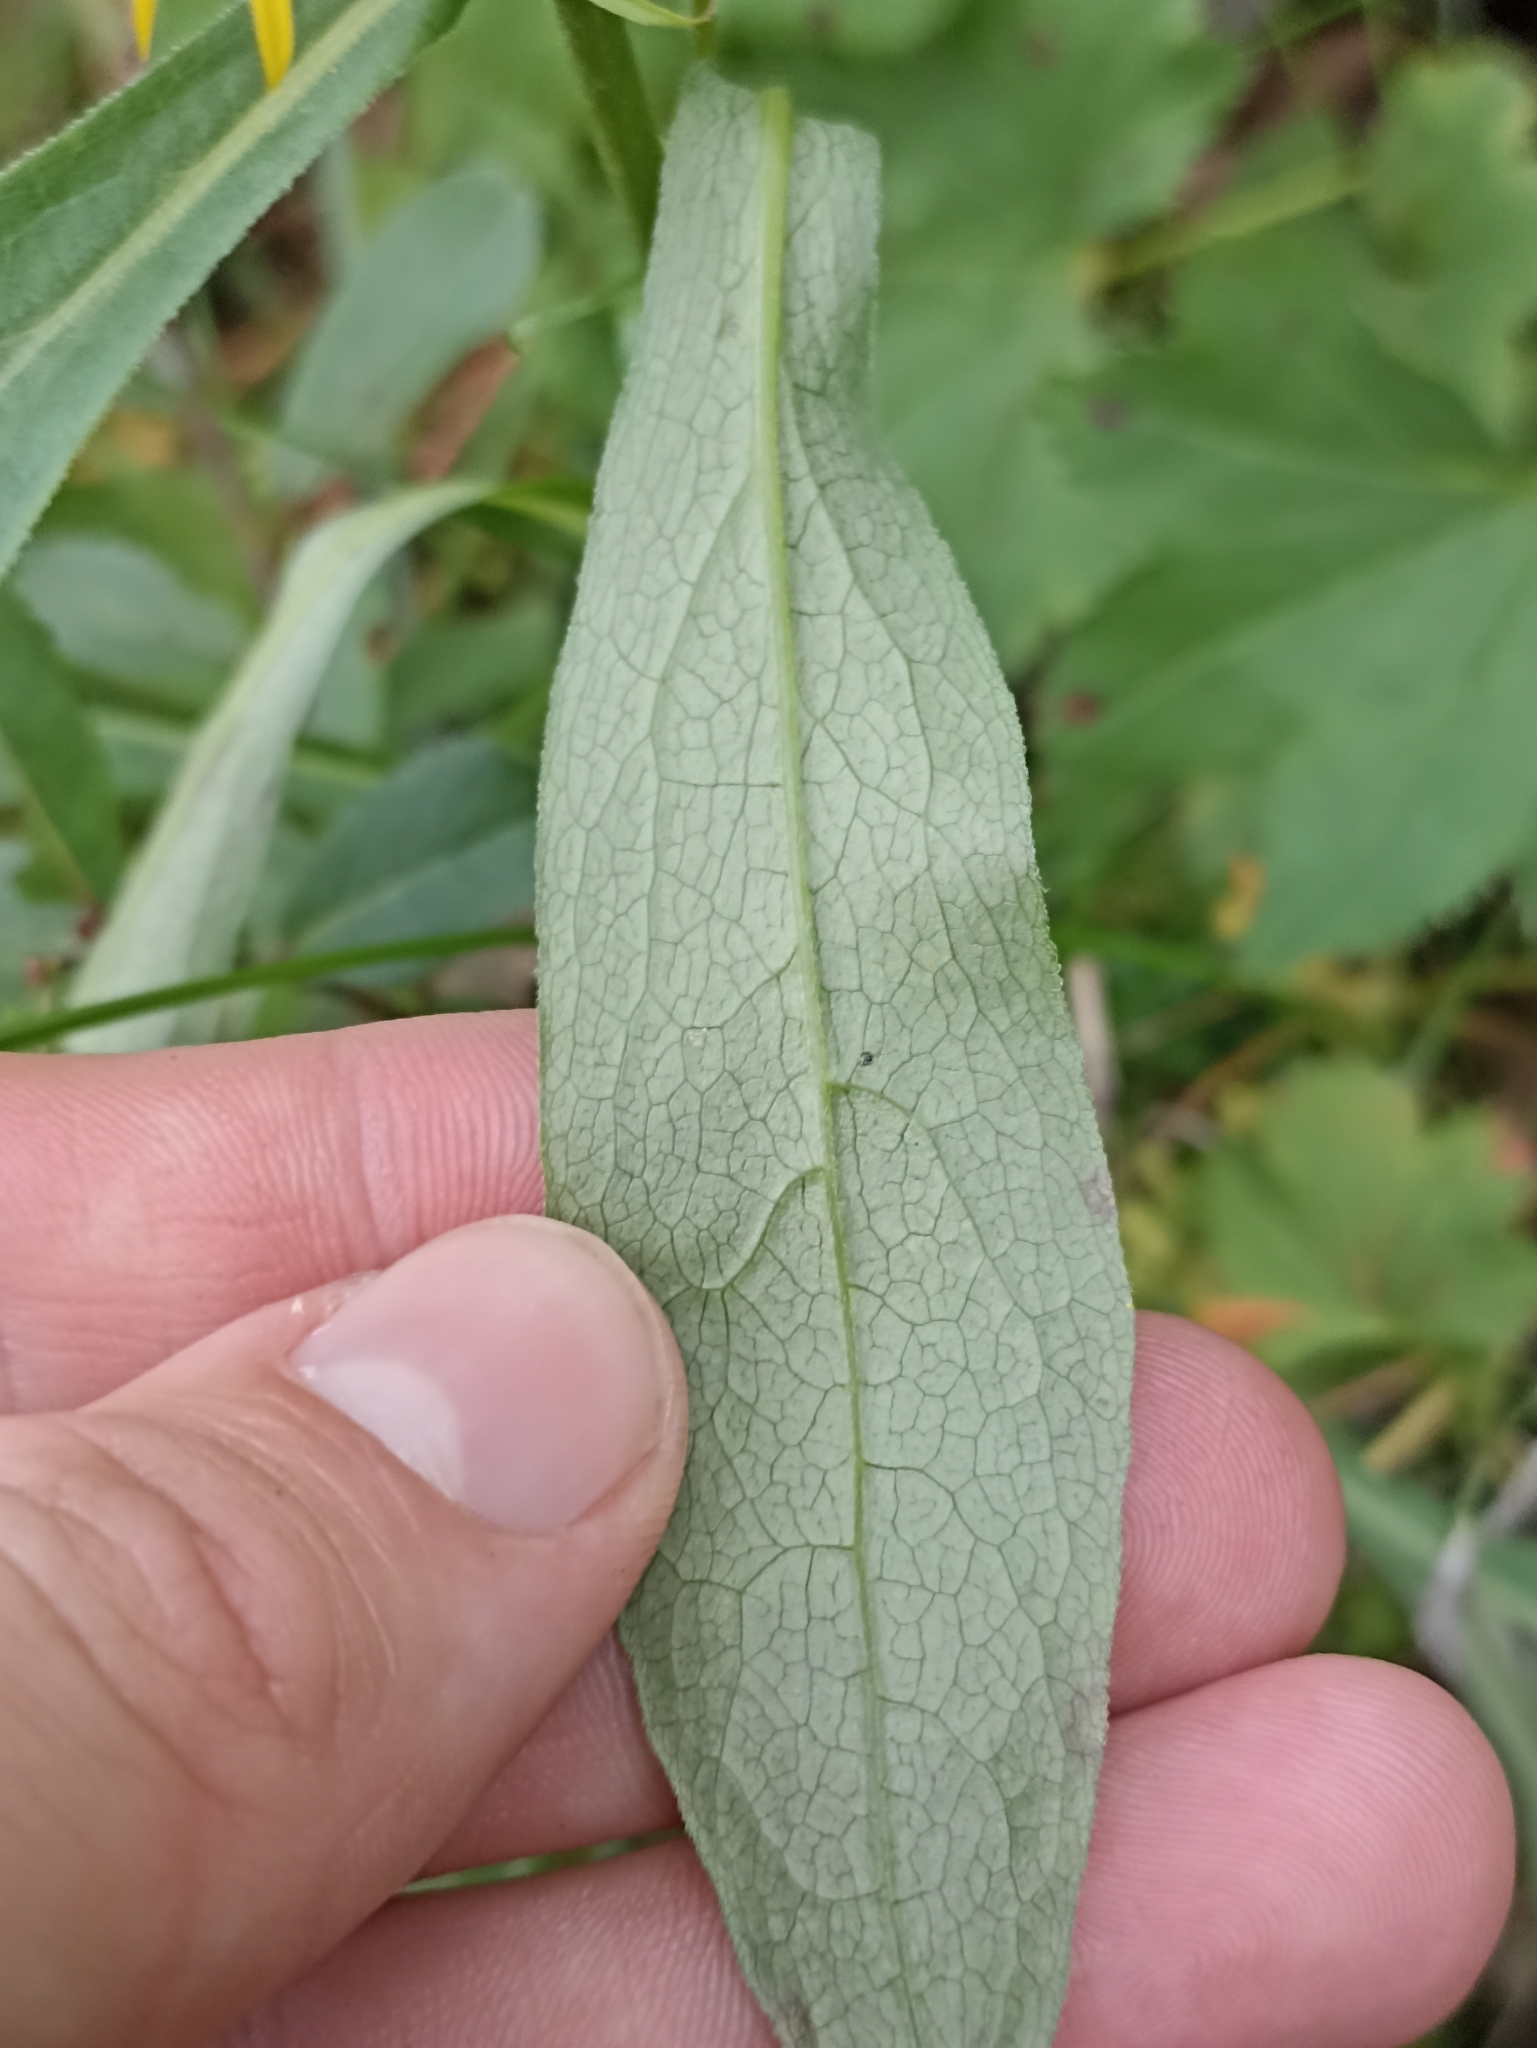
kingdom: Plantae
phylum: Tracheophyta
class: Magnoliopsida
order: Asterales
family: Asteraceae
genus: Solidago
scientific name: Solidago virgaurea
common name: Goldenrod
